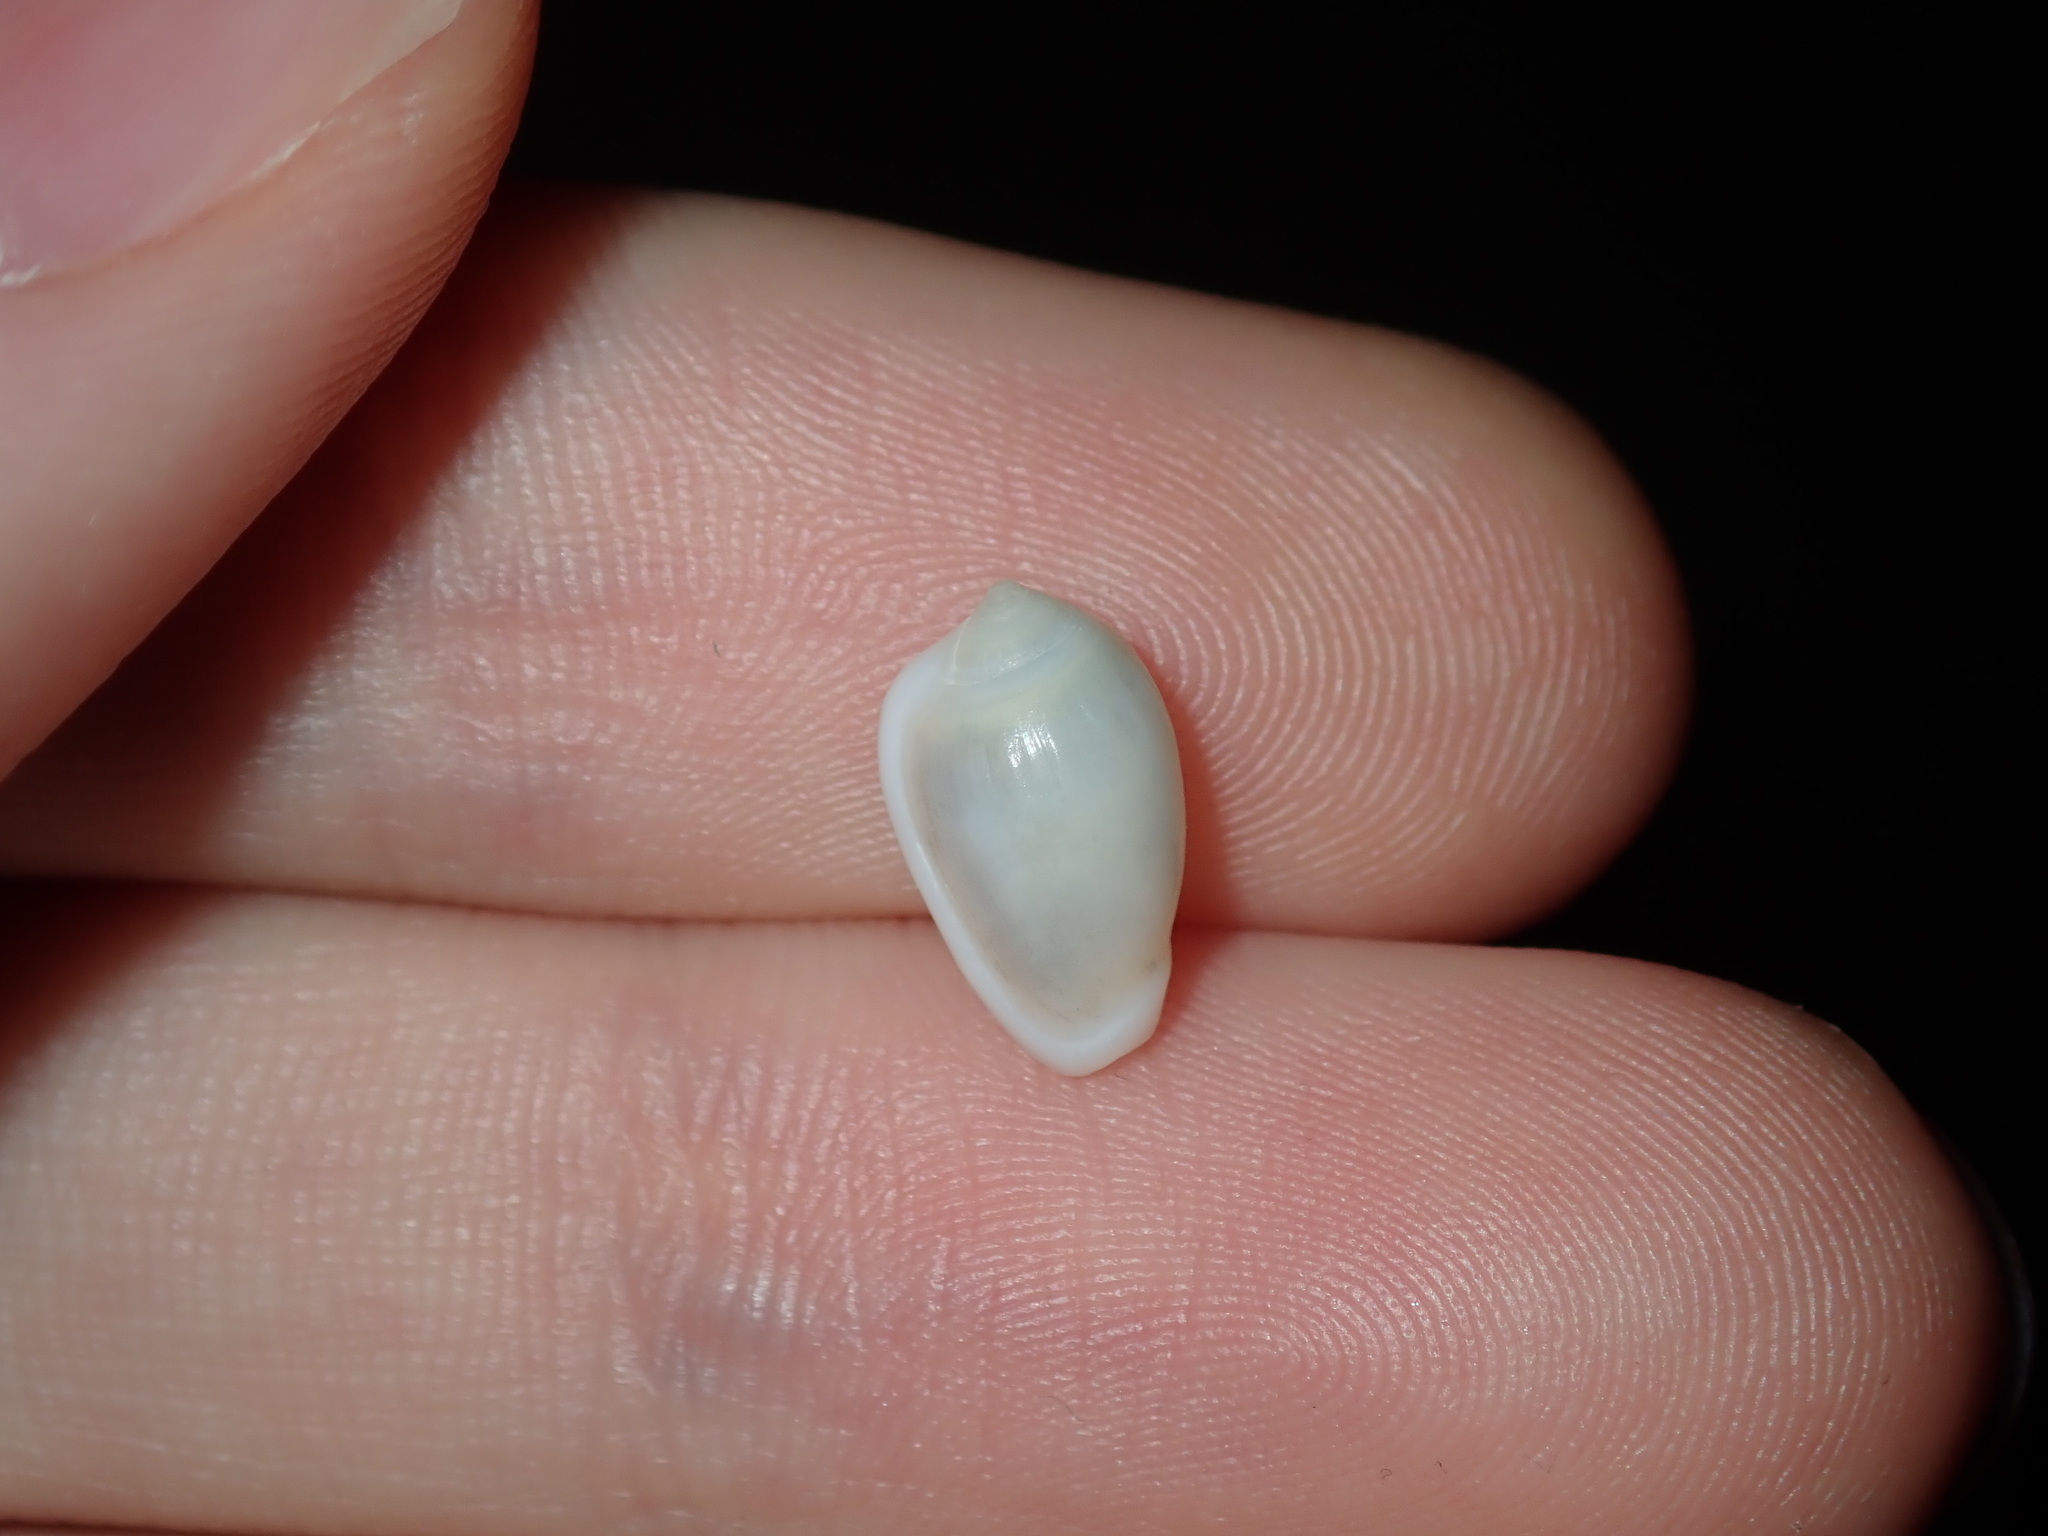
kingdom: Animalia
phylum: Mollusca
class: Gastropoda
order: Neogastropoda
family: Marginellidae
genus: Mesoginella
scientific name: Mesoginella turbinata
